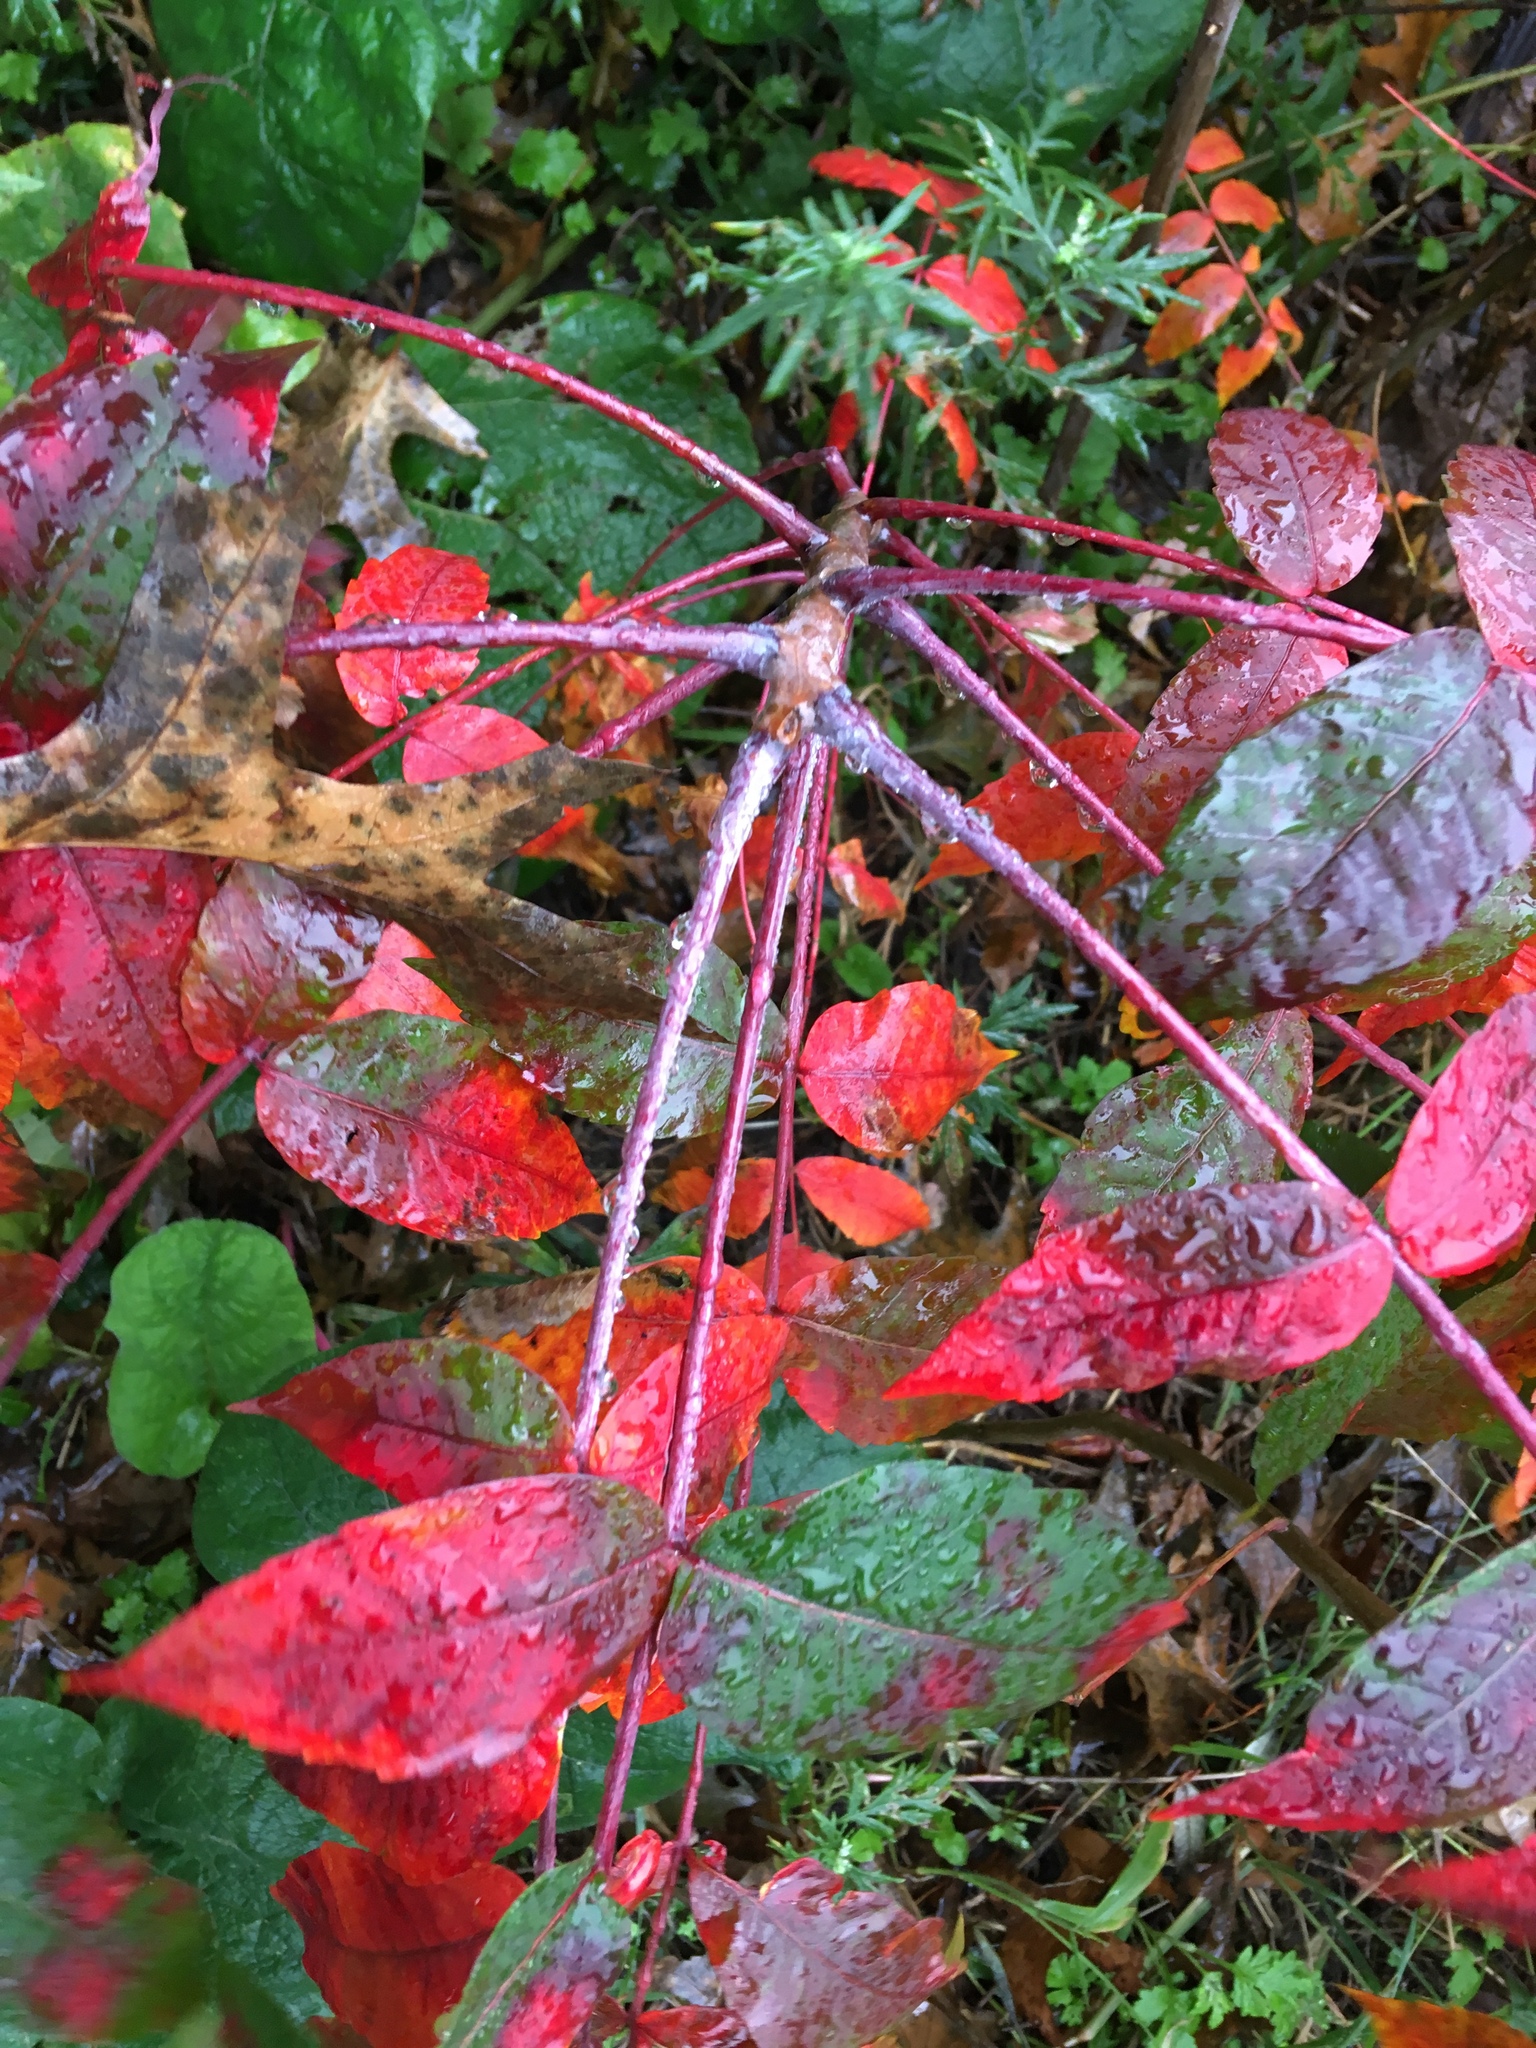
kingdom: Plantae
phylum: Tracheophyta
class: Magnoliopsida
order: Sapindales
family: Anacardiaceae
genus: Rhus
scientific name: Rhus glabra
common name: Scarlet sumac
